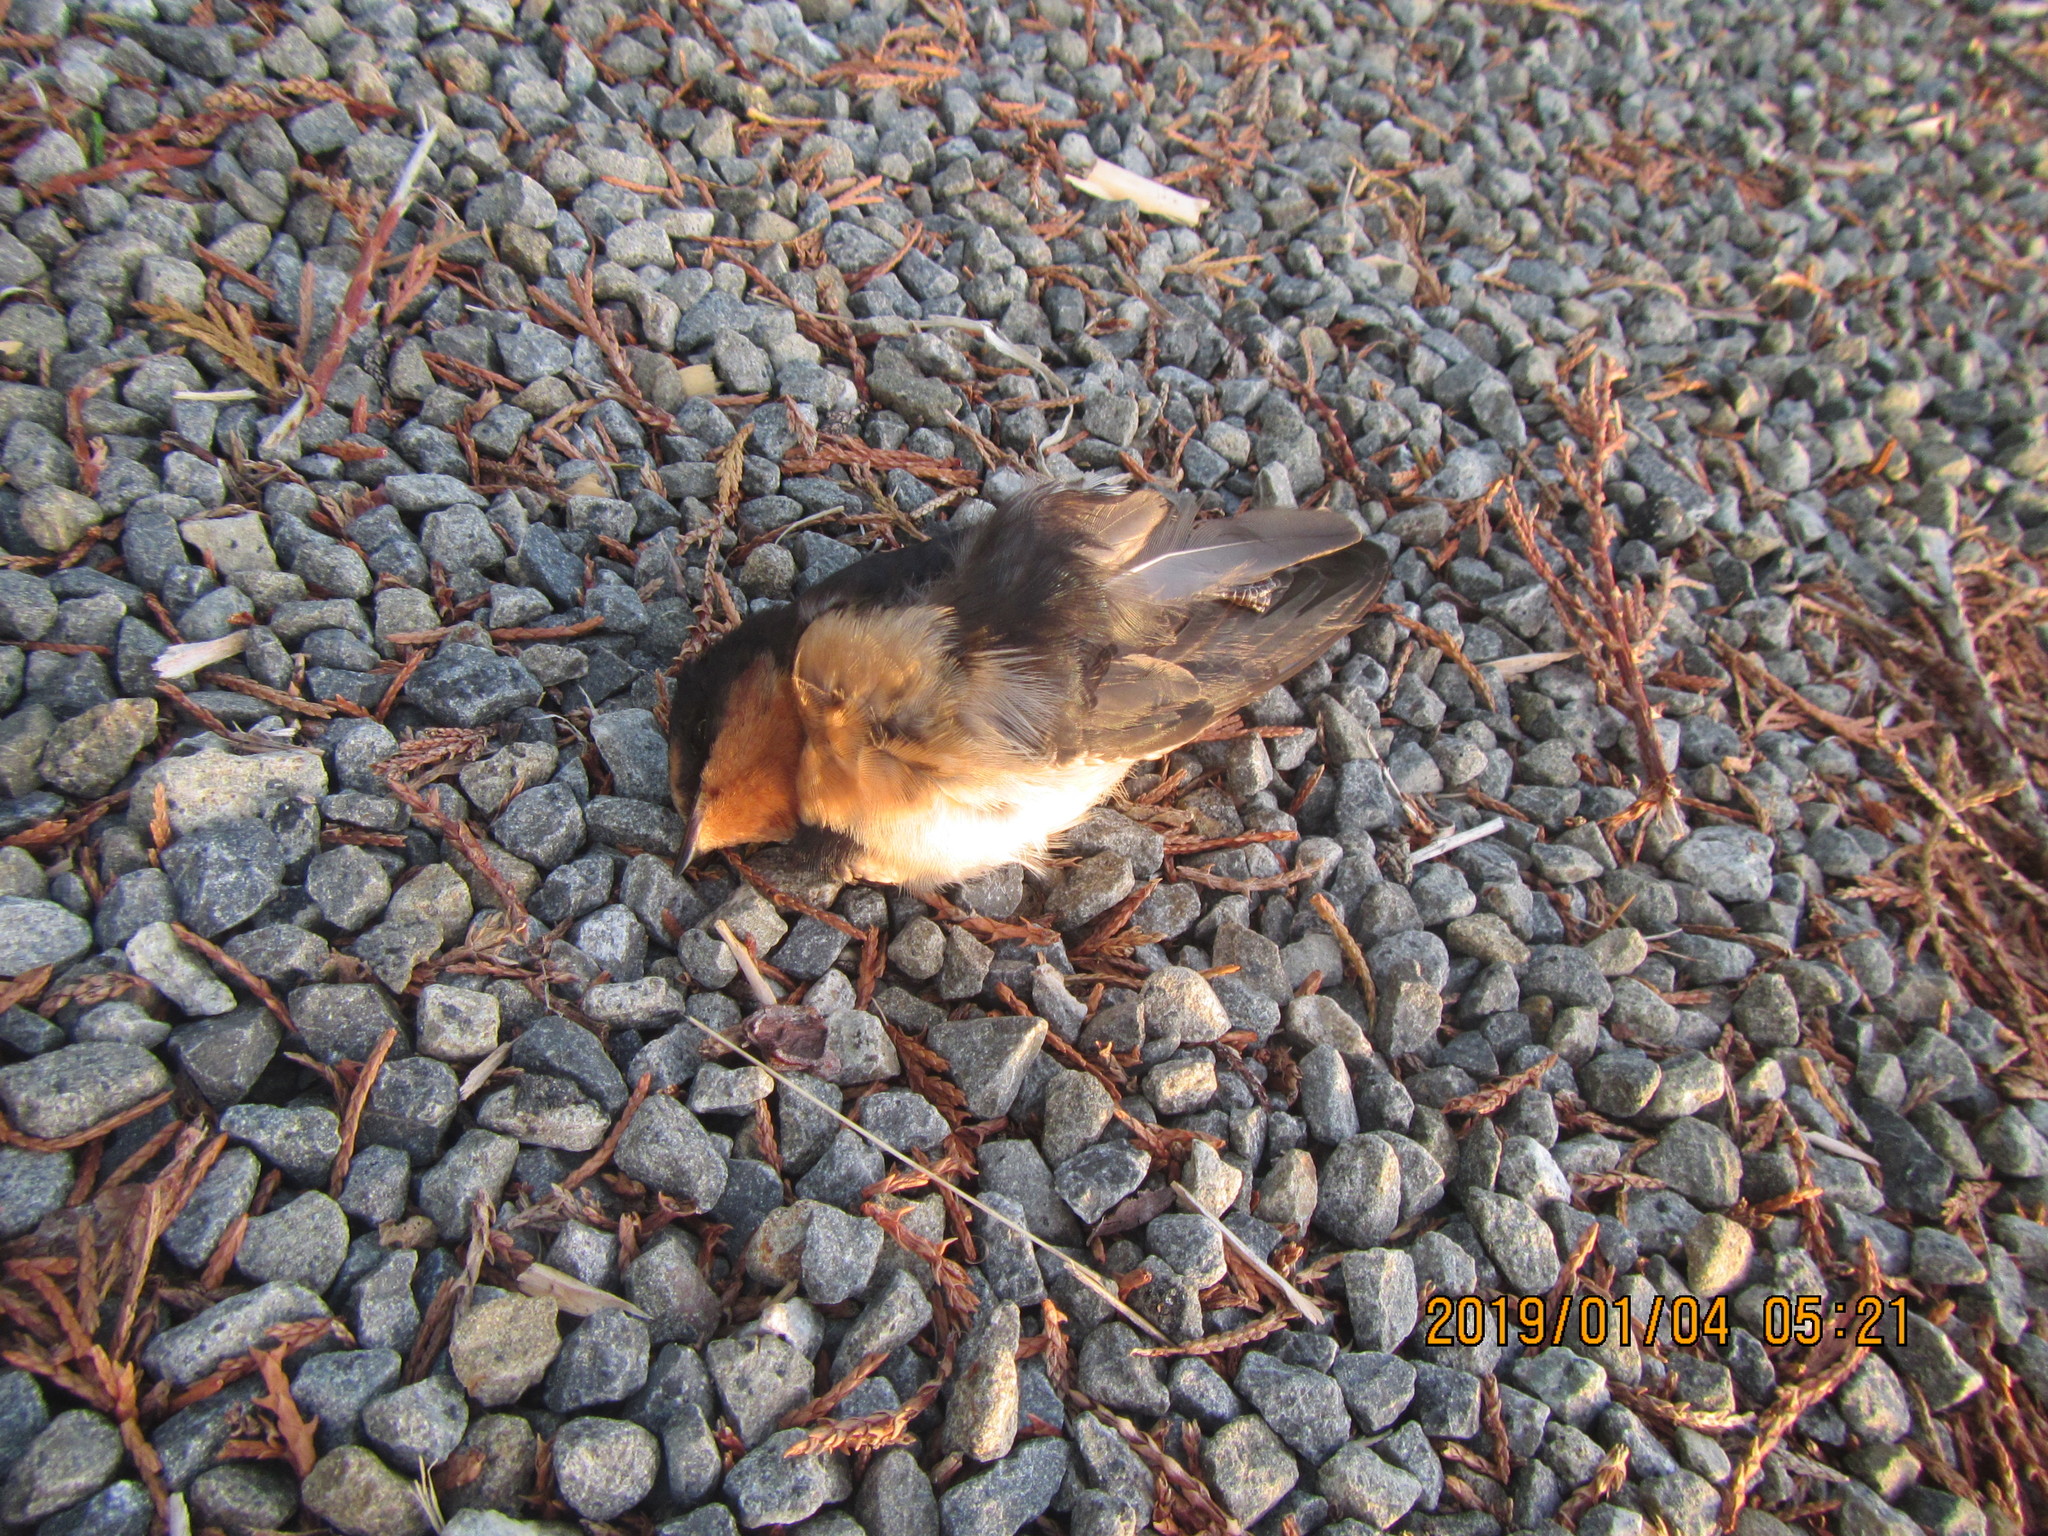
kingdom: Animalia
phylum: Chordata
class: Aves
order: Passeriformes
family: Hirundinidae
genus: Hirundo
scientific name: Hirundo neoxena
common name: Welcome swallow
